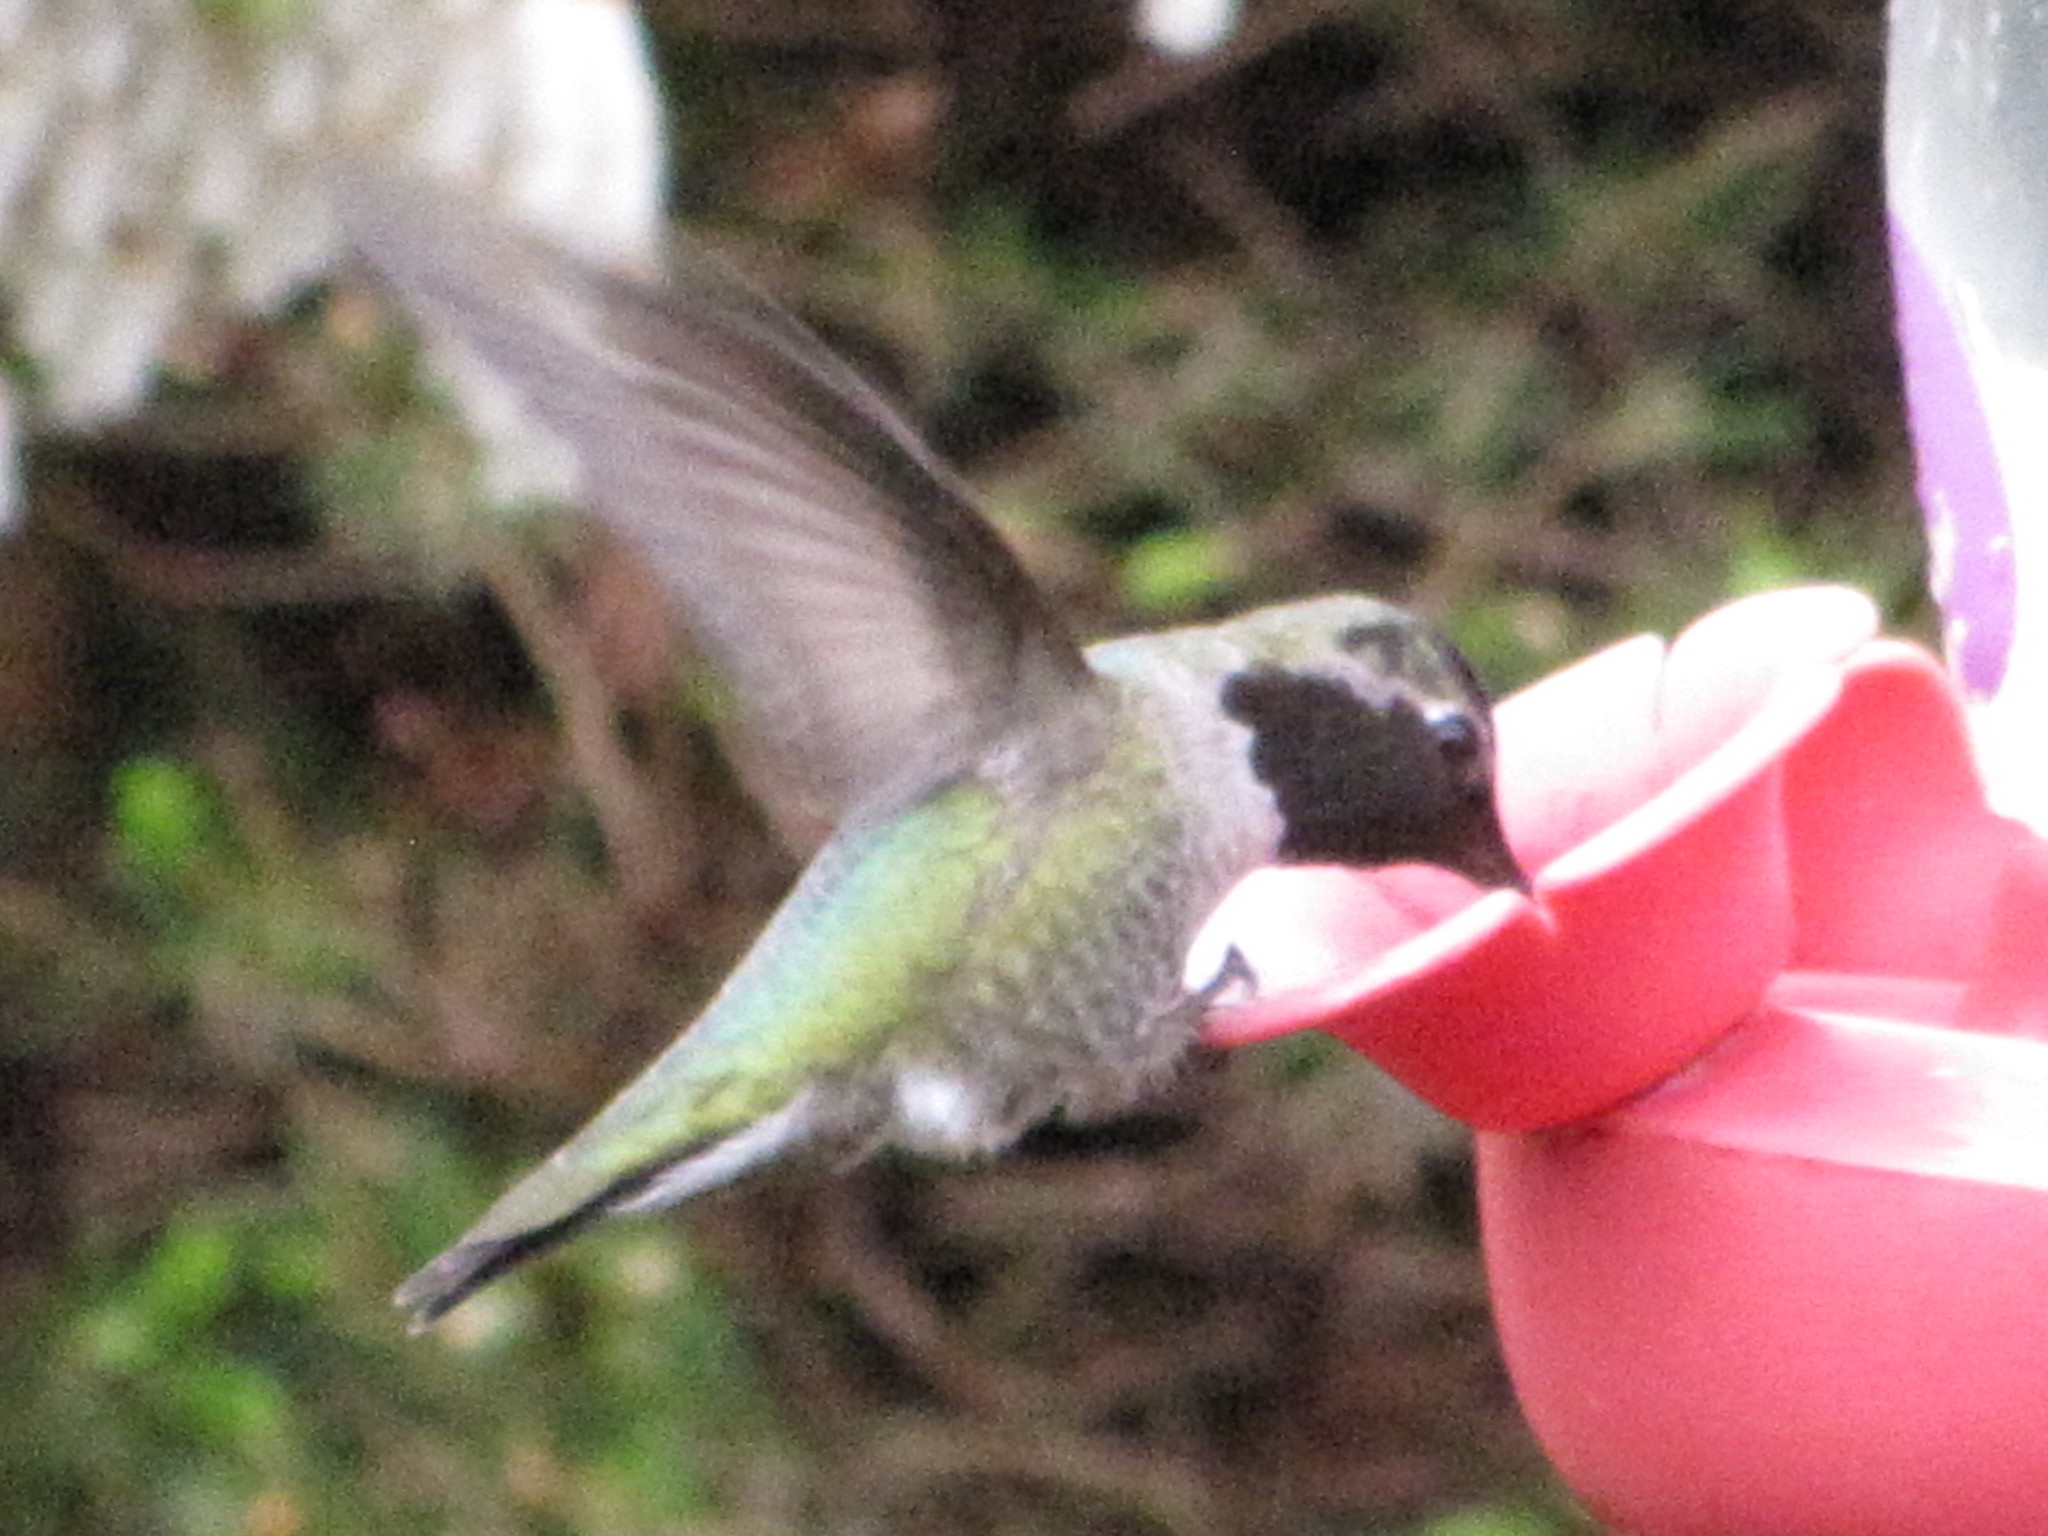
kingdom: Animalia
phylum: Chordata
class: Aves
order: Apodiformes
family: Trochilidae
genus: Calypte
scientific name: Calypte anna
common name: Anna's hummingbird
